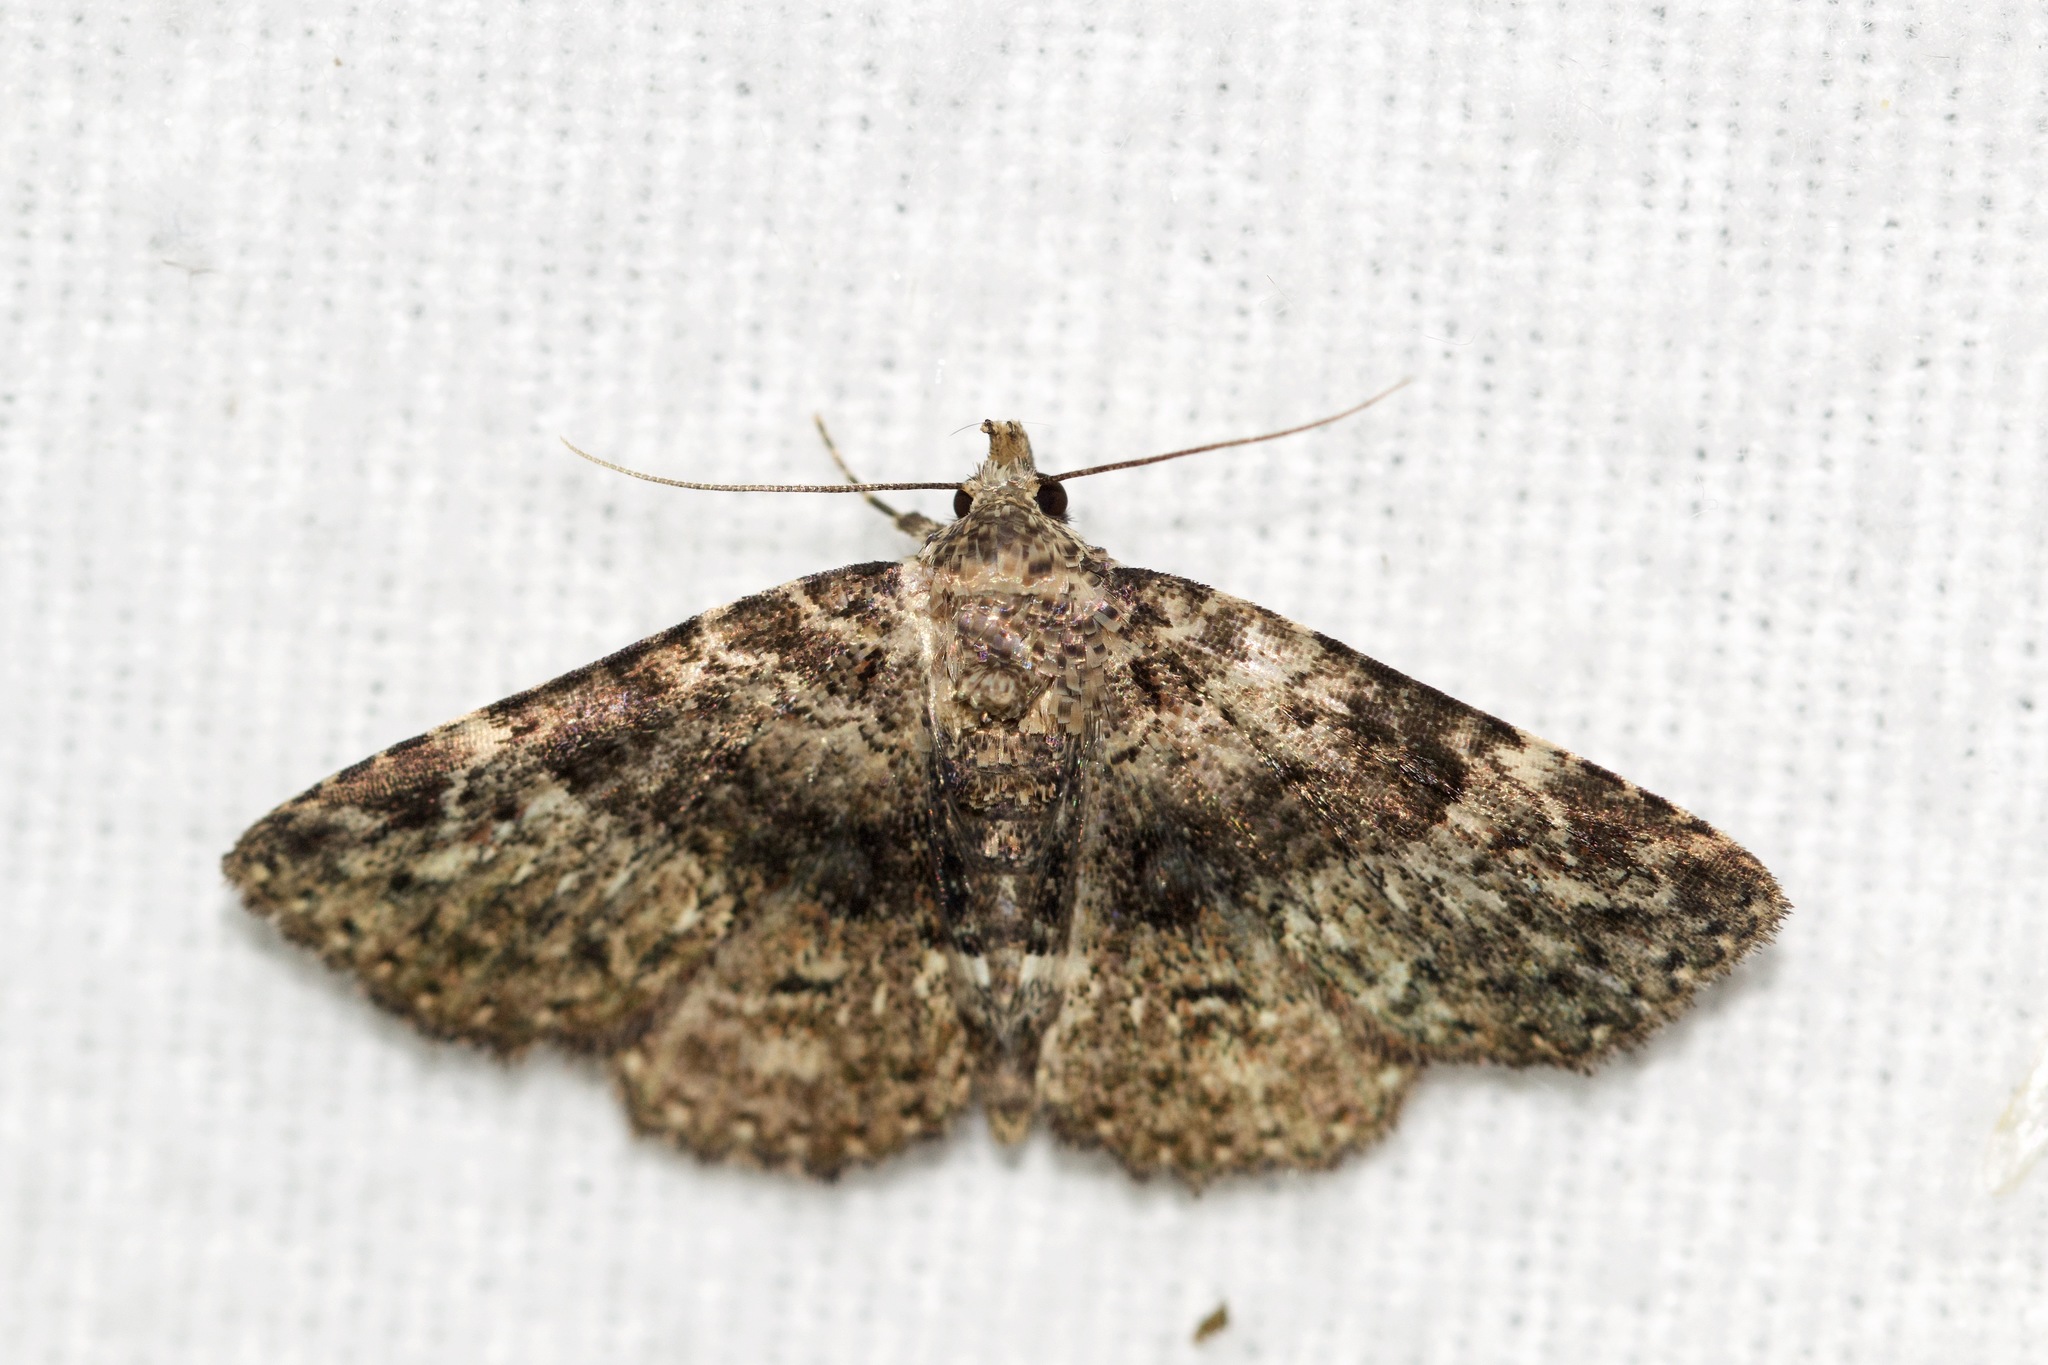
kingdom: Animalia
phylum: Arthropoda
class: Insecta
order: Lepidoptera
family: Erebidae
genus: Metalectra
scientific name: Metalectra discalis
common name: Common fungus moth
